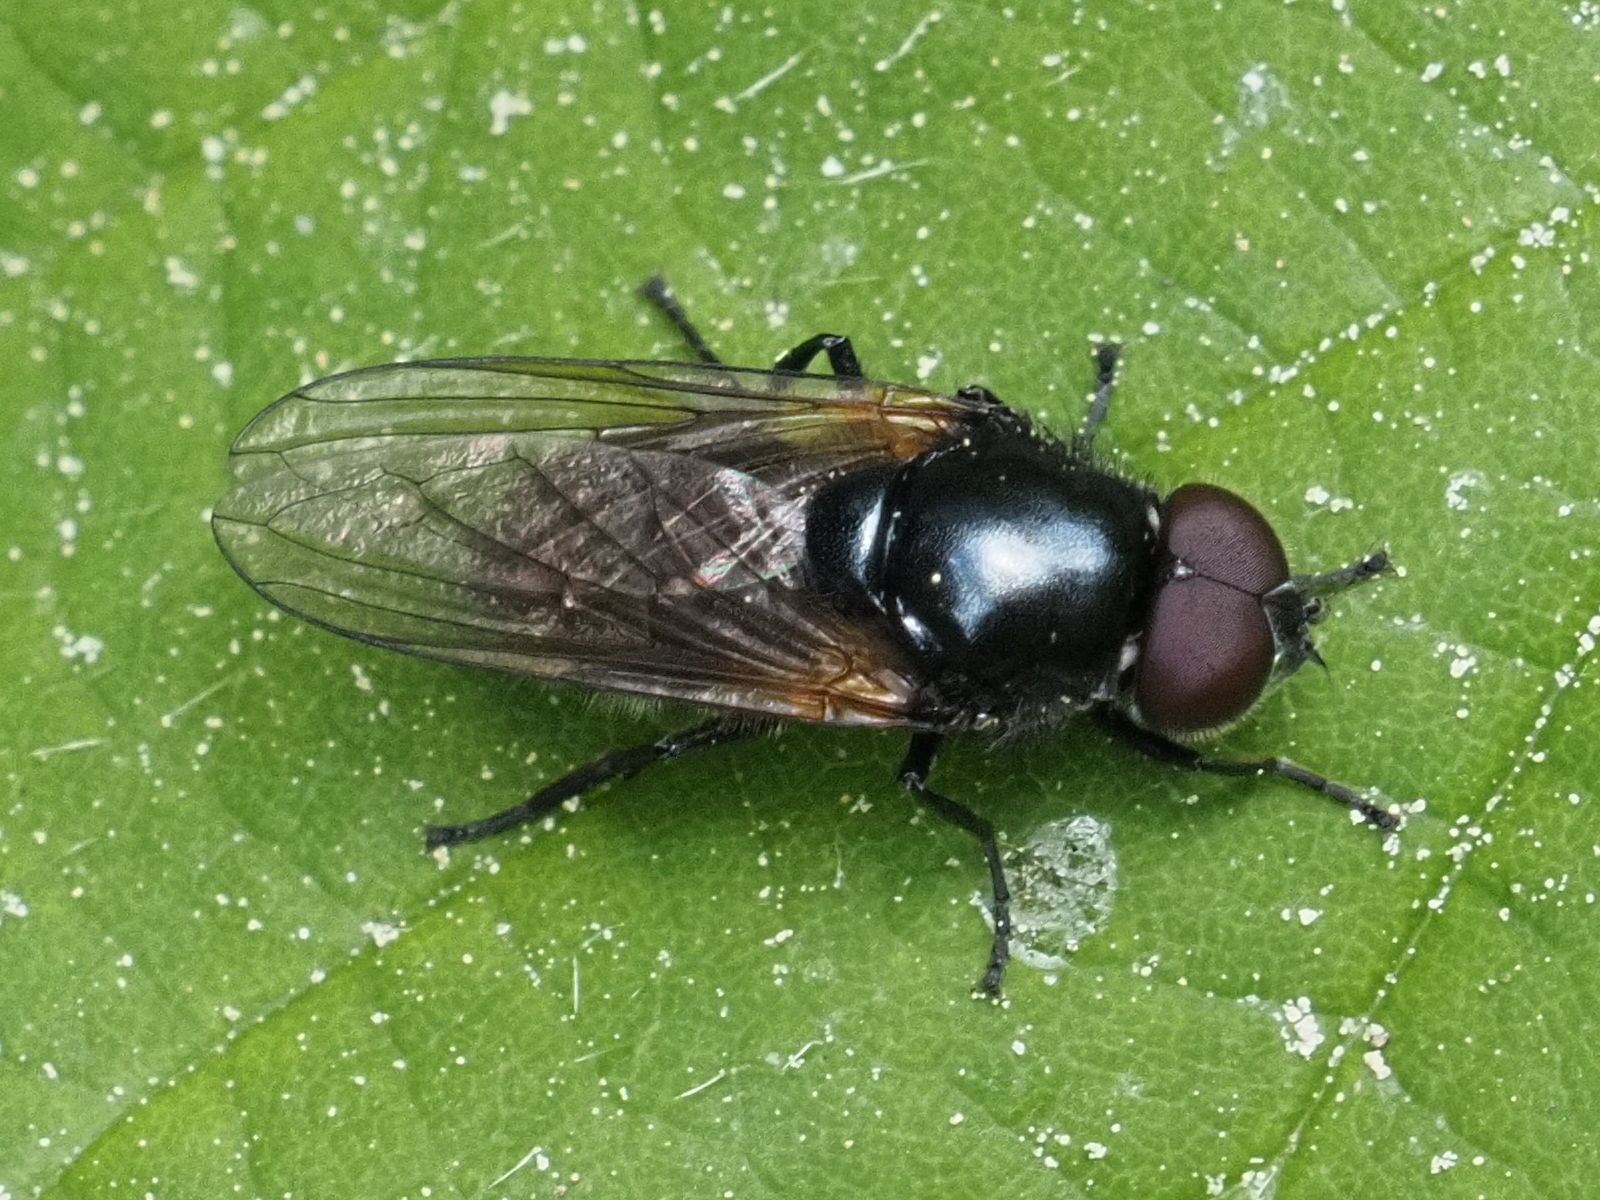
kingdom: Animalia
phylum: Arthropoda
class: Insecta
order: Diptera
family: Syrphidae
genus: Cheilosia
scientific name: Cheilosia impressa
